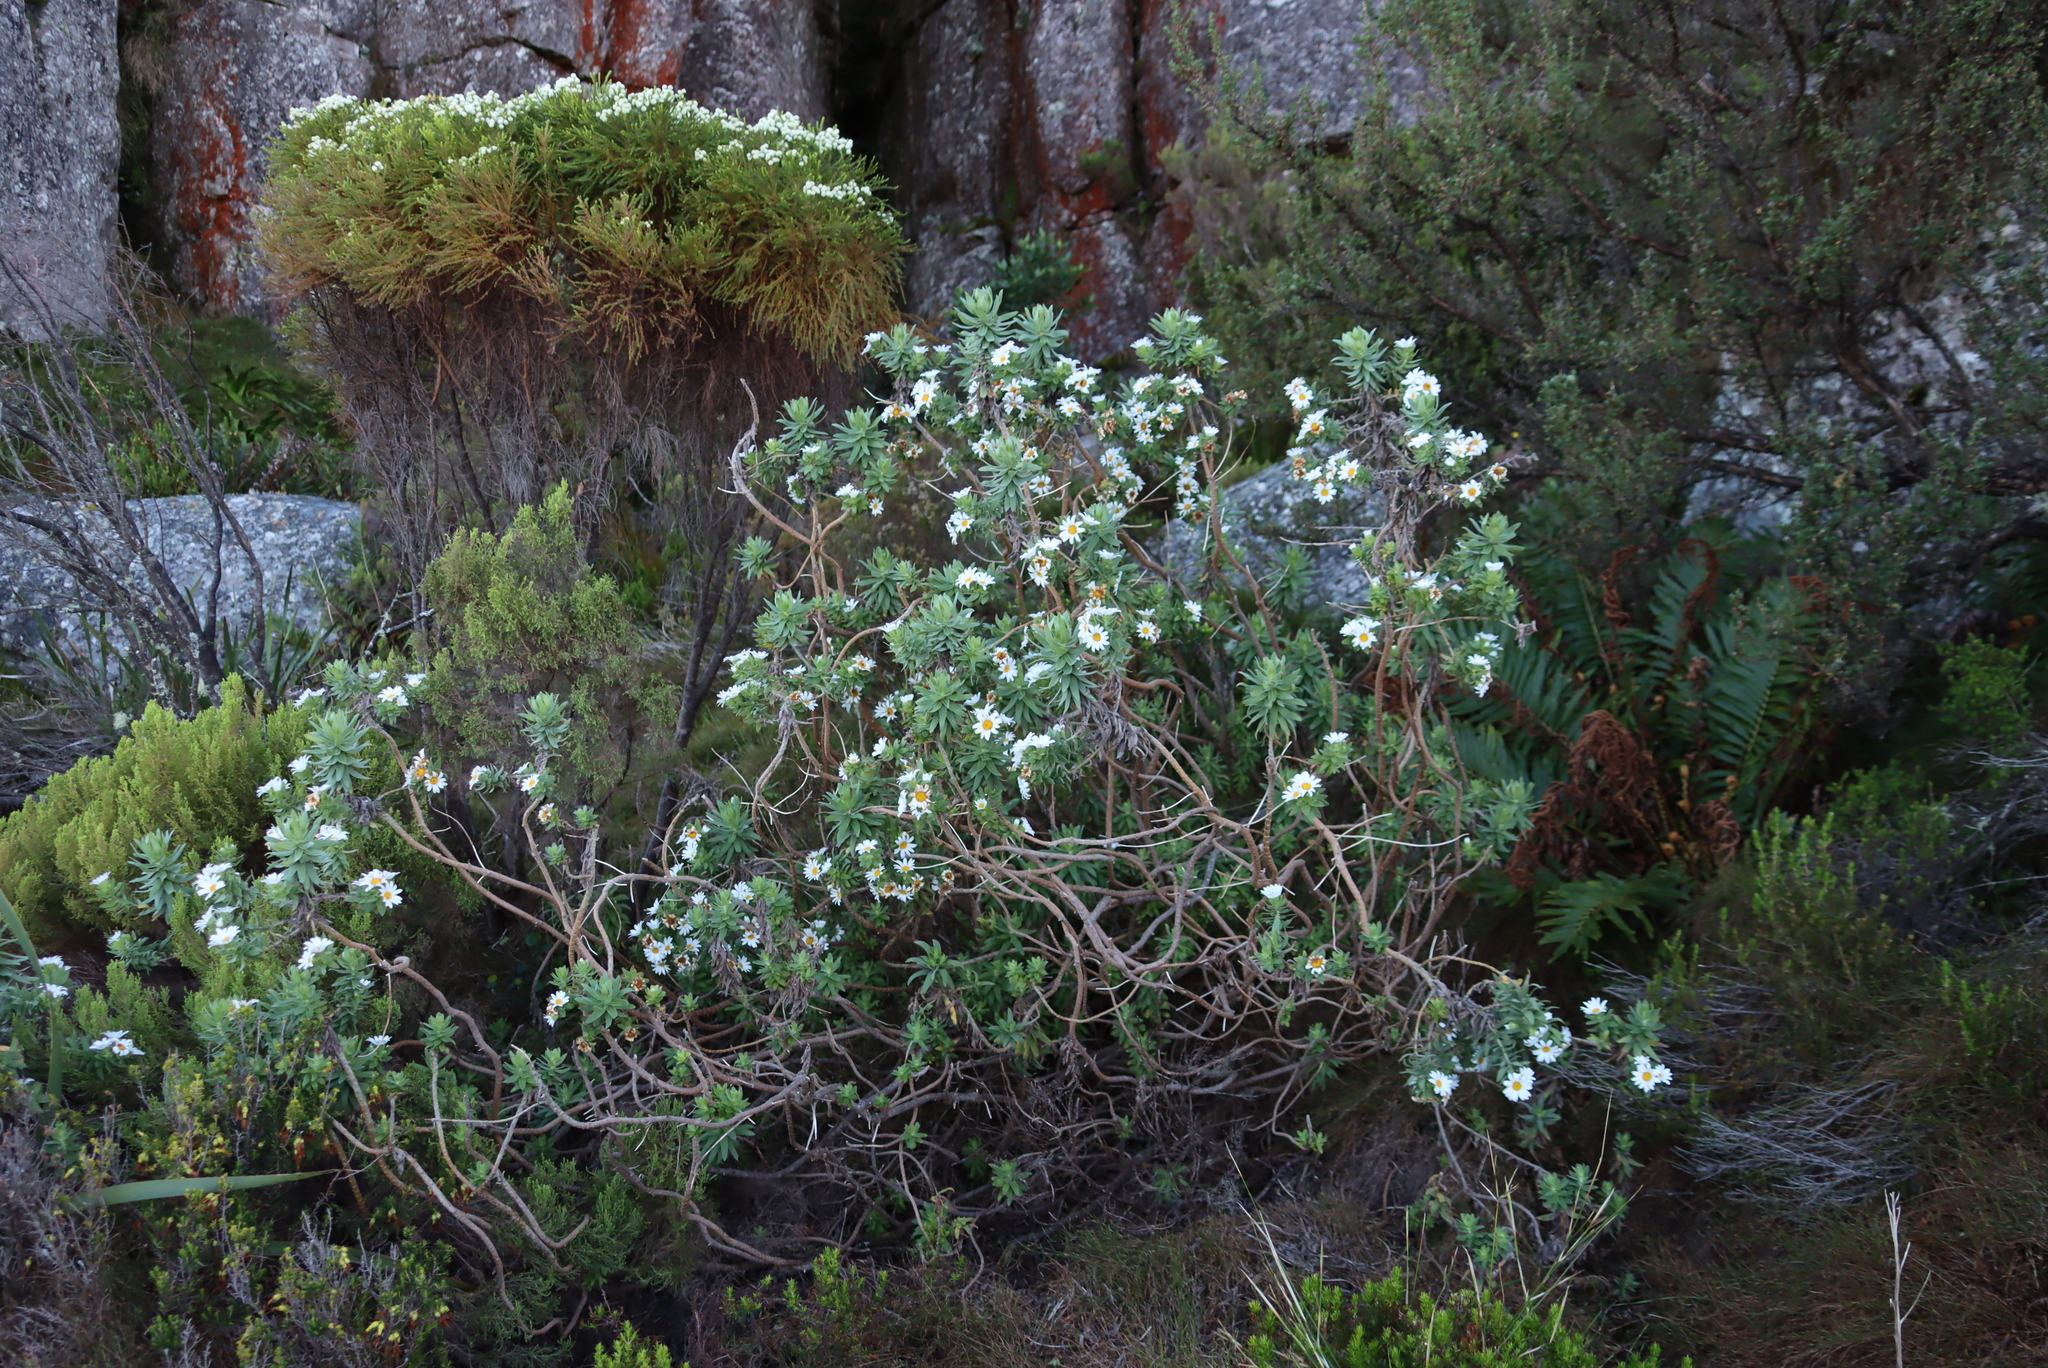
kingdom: Plantae
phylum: Tracheophyta
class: Magnoliopsida
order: Asterales
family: Asteraceae
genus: Osmitopsis
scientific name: Osmitopsis asteriscoides
